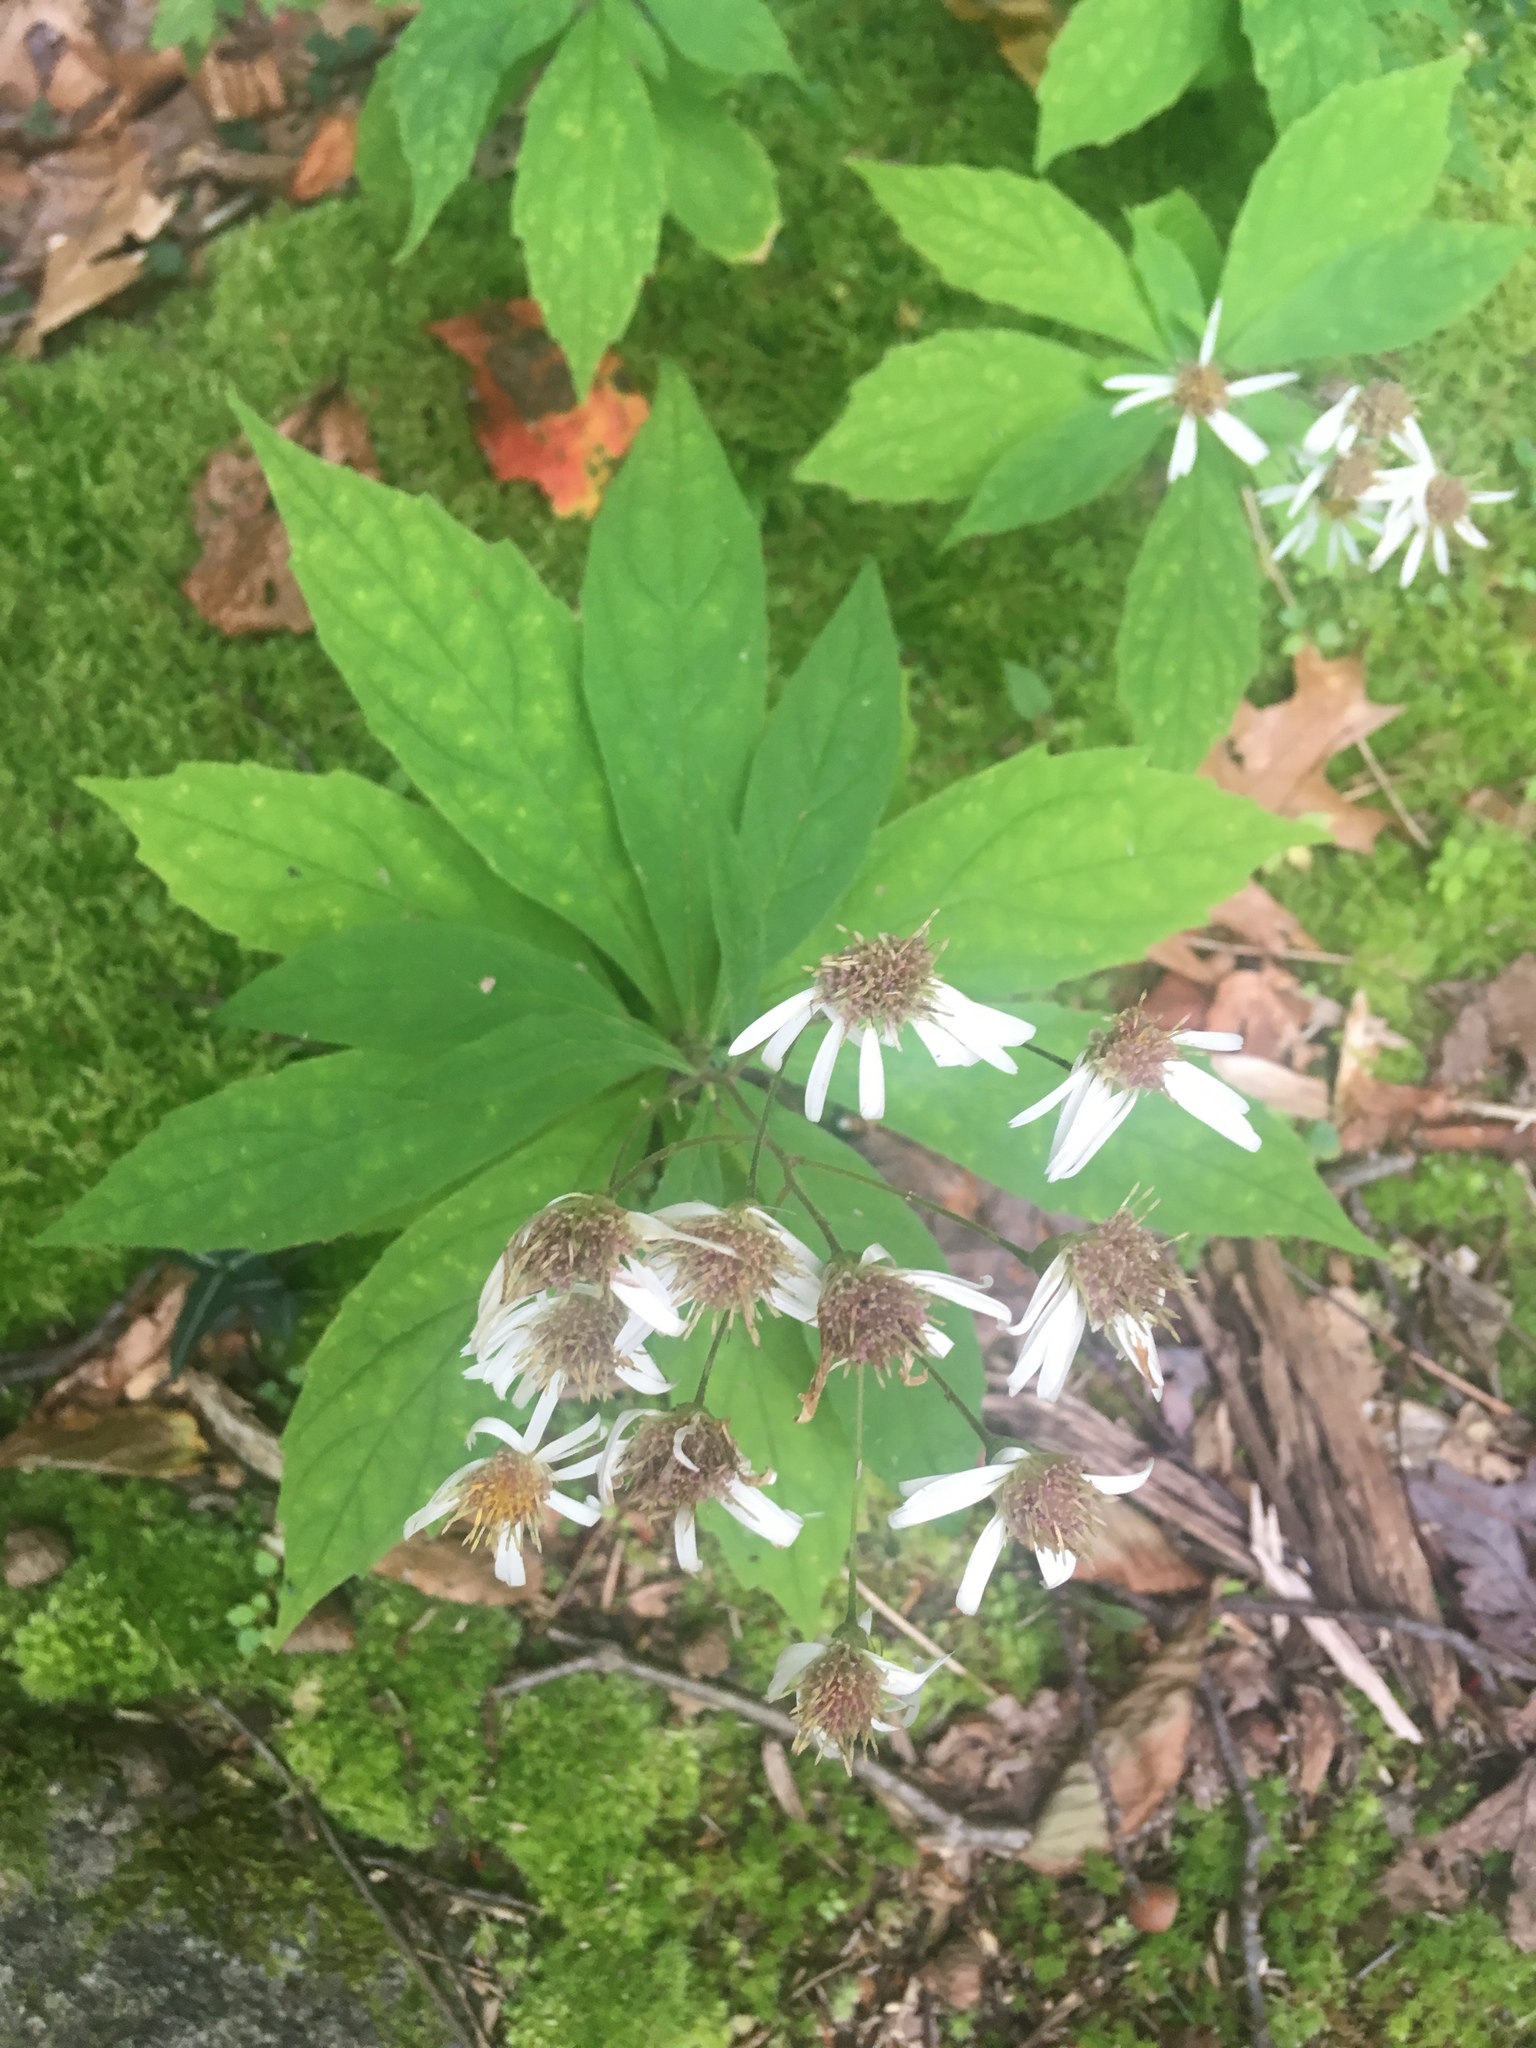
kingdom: Plantae
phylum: Tracheophyta
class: Magnoliopsida
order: Asterales
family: Asteraceae
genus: Oclemena
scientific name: Oclemena acuminata
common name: Mountain aster
